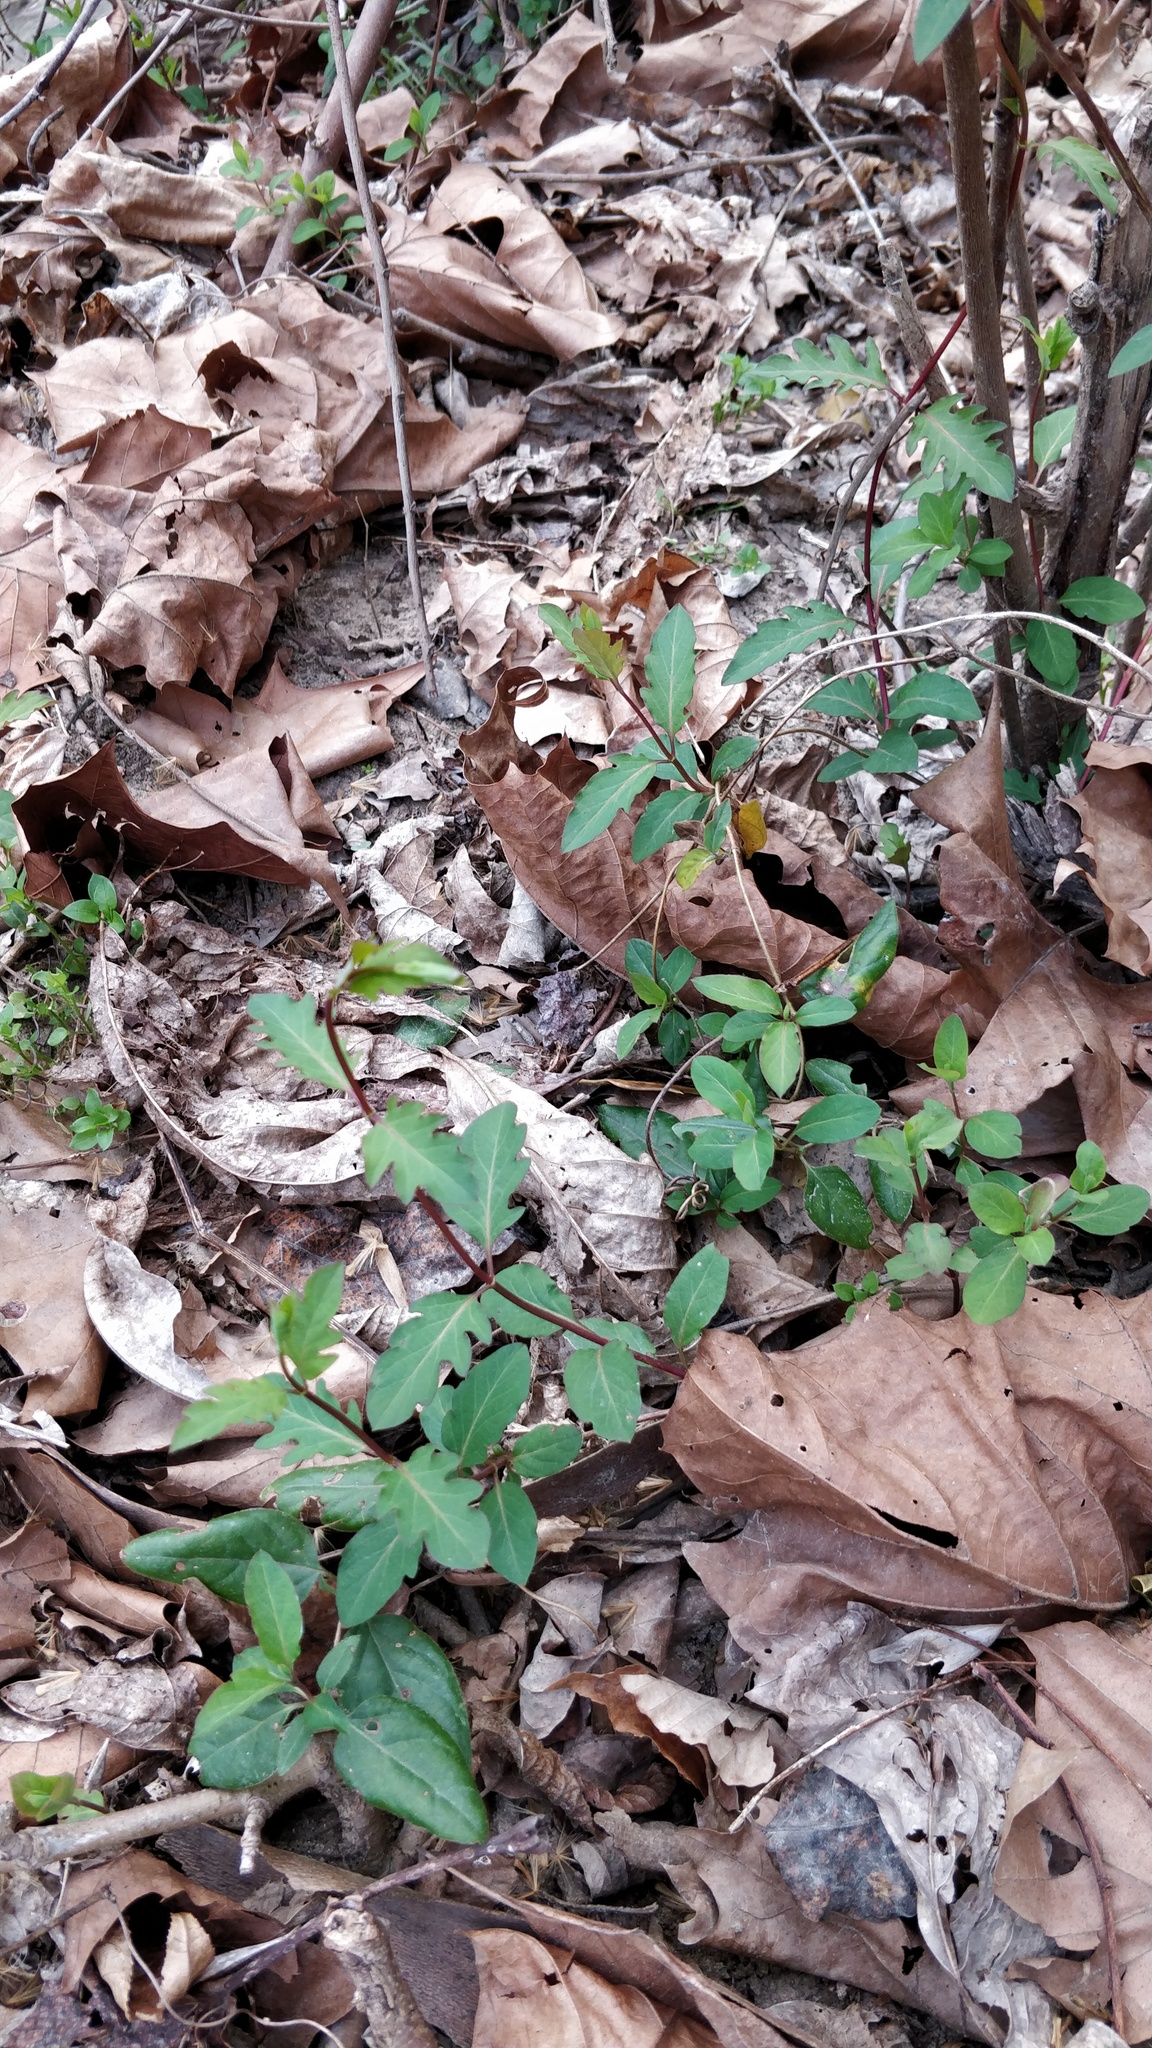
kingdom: Plantae
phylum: Tracheophyta
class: Magnoliopsida
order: Dipsacales
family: Caprifoliaceae
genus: Lonicera
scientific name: Lonicera japonica
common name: Japanese honeysuckle
